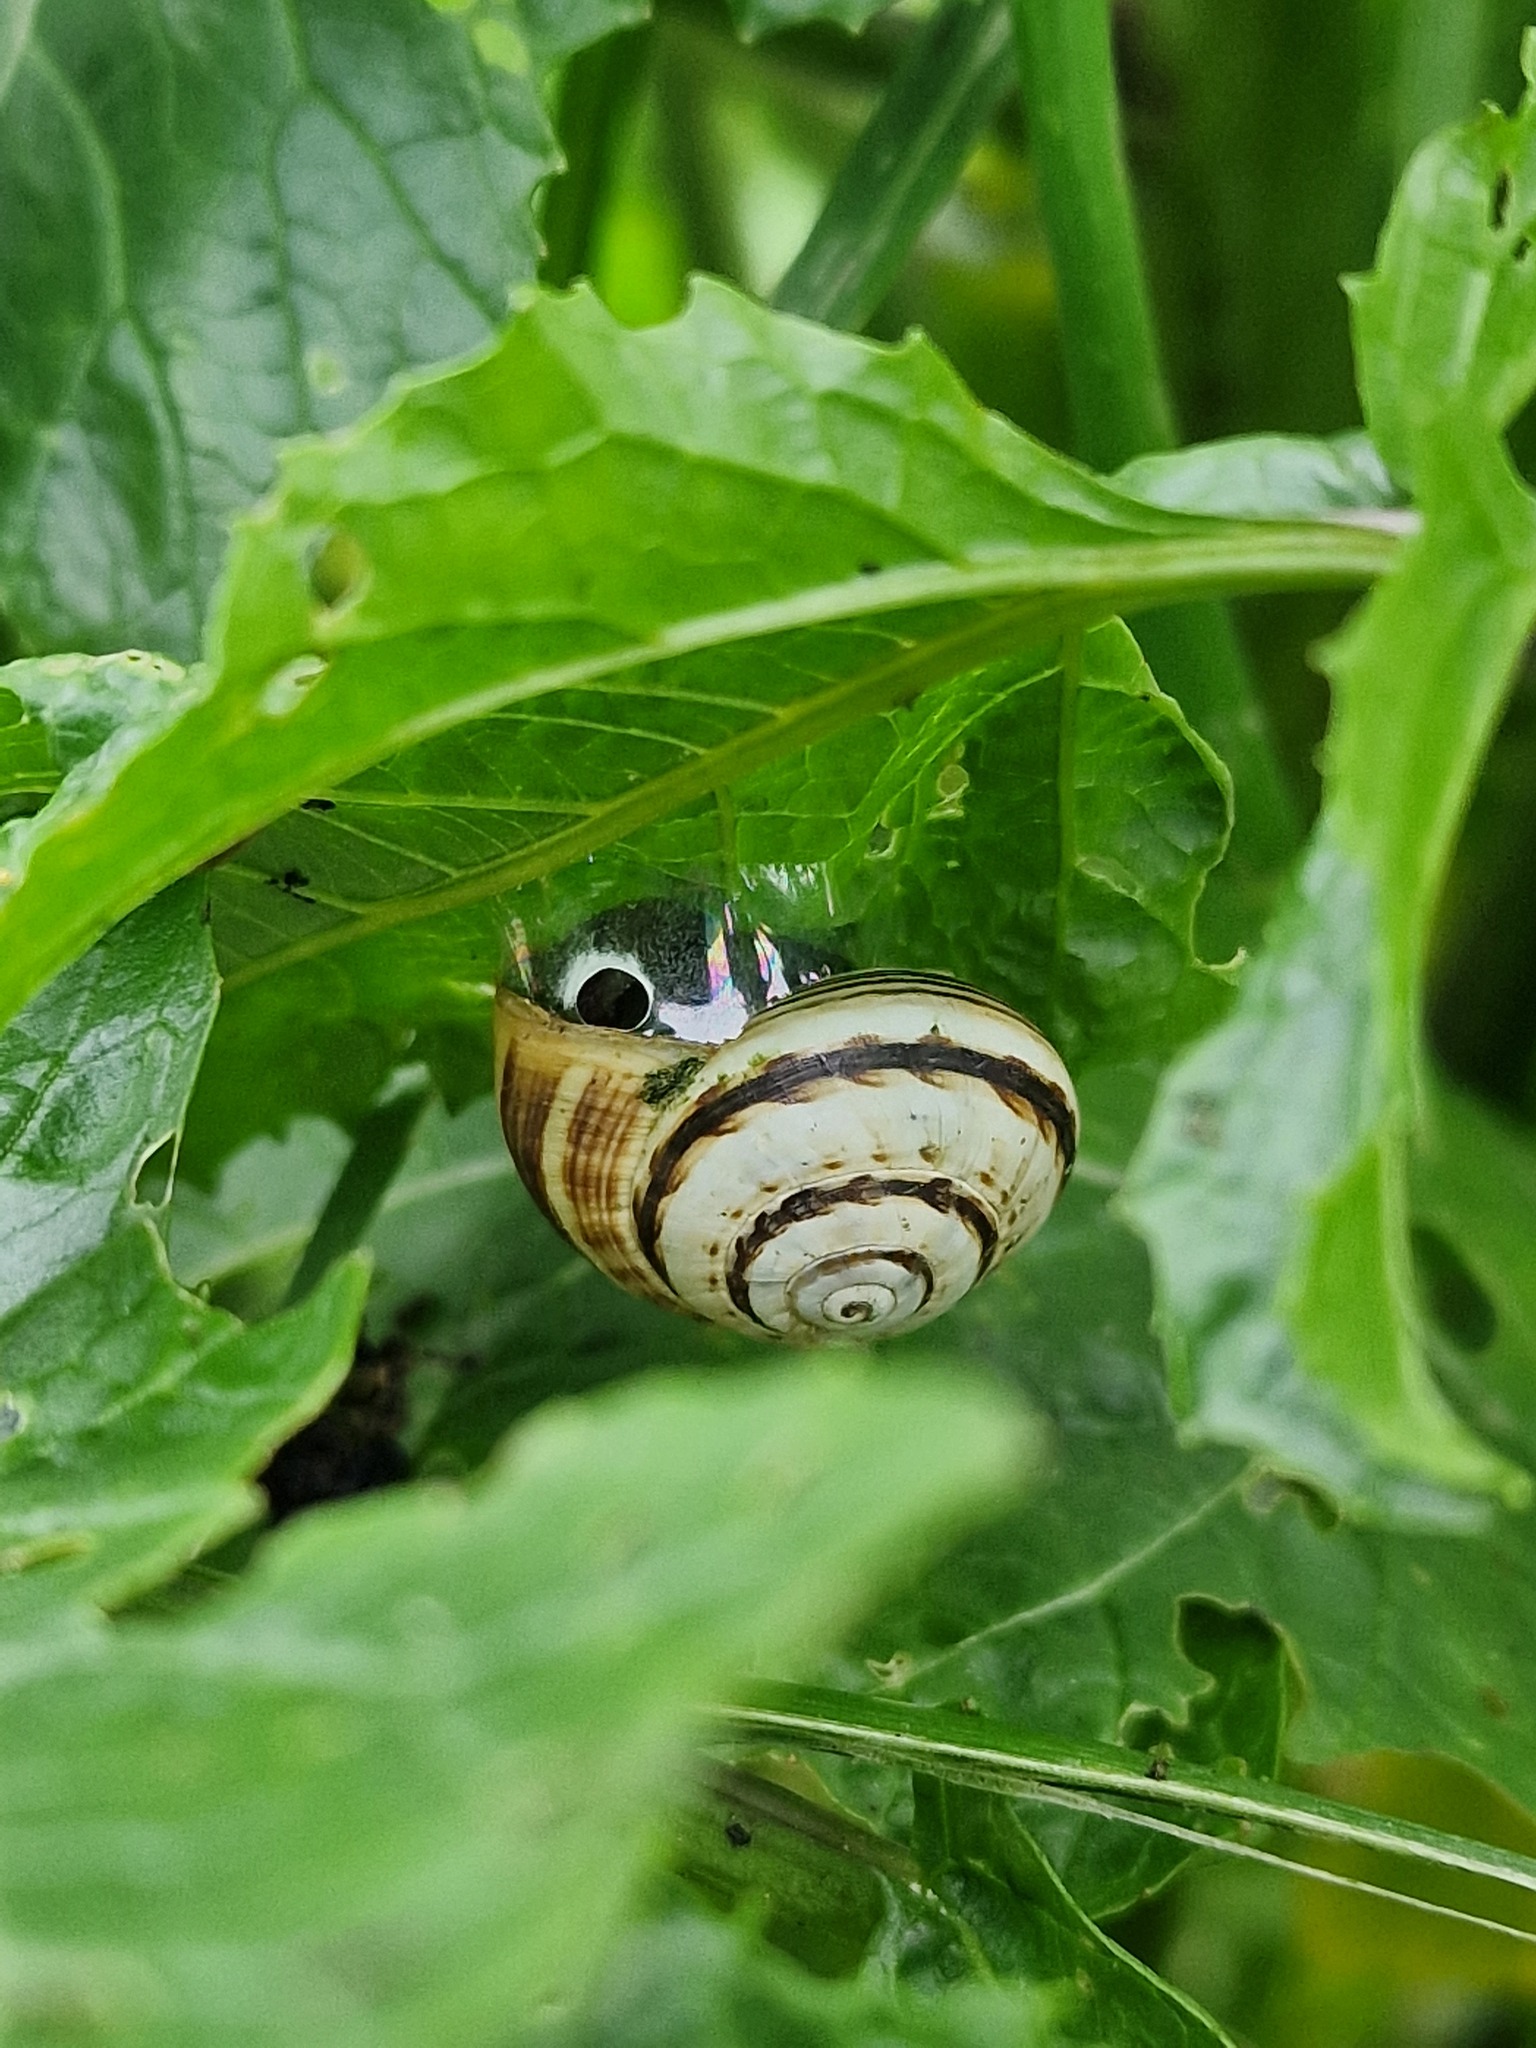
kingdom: Animalia
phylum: Mollusca
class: Gastropoda
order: Stylommatophora
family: Helicidae
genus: Theba
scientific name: Theba pisana
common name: White snail
